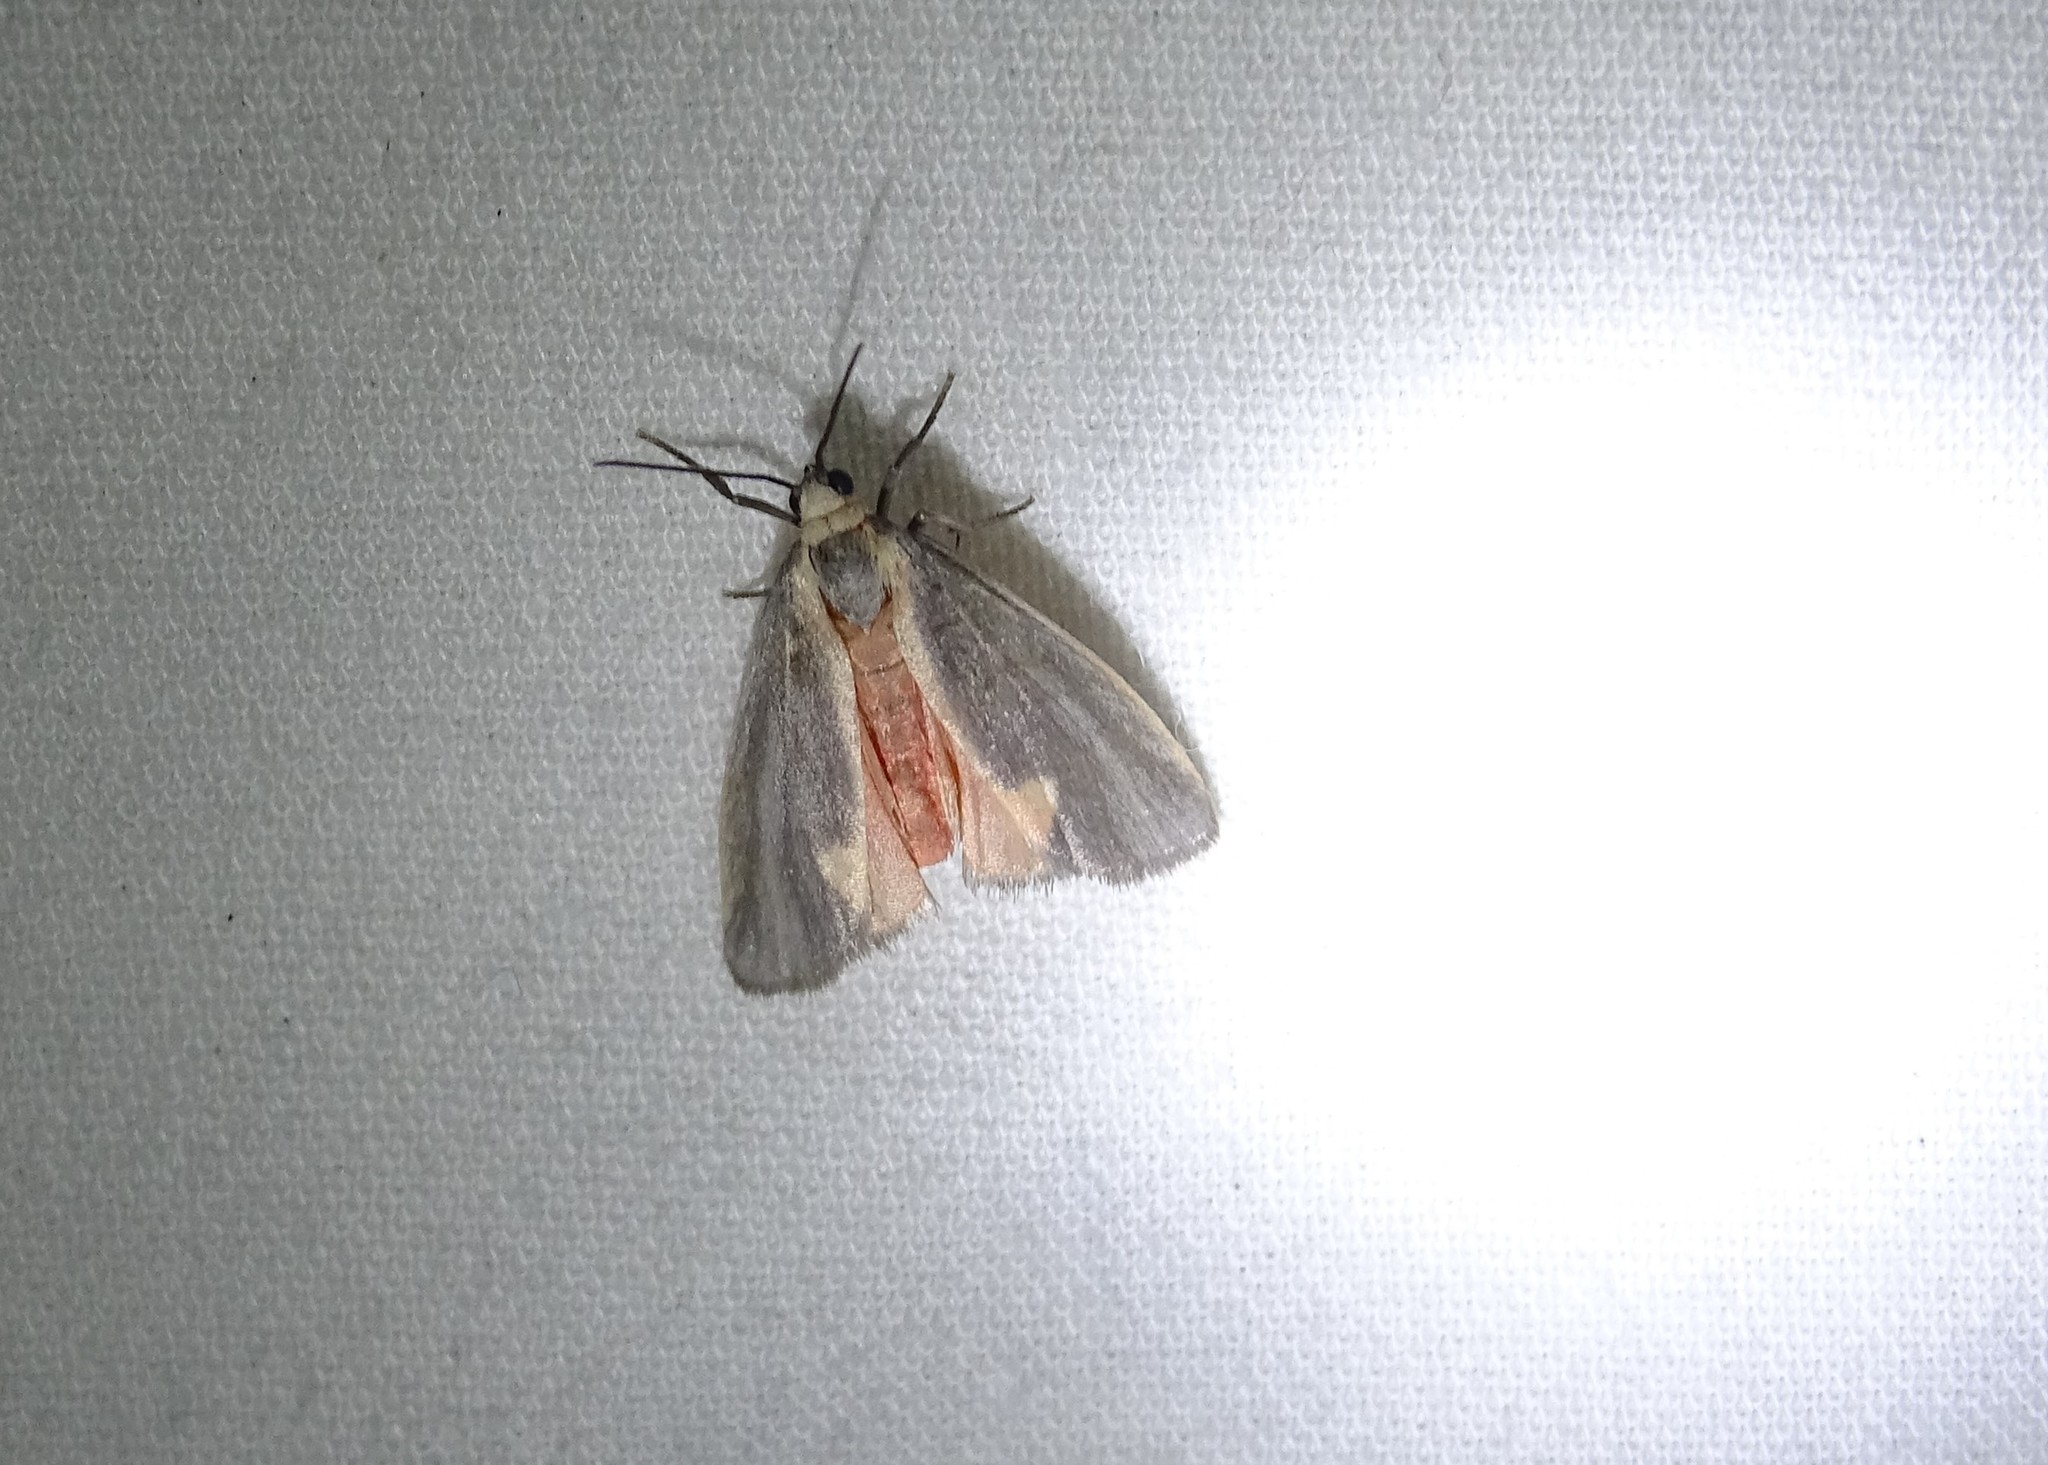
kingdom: Animalia
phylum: Arthropoda
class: Insecta
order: Lepidoptera
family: Erebidae
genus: Cisthene
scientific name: Cisthene plumbea
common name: Lead colored lichen moth
